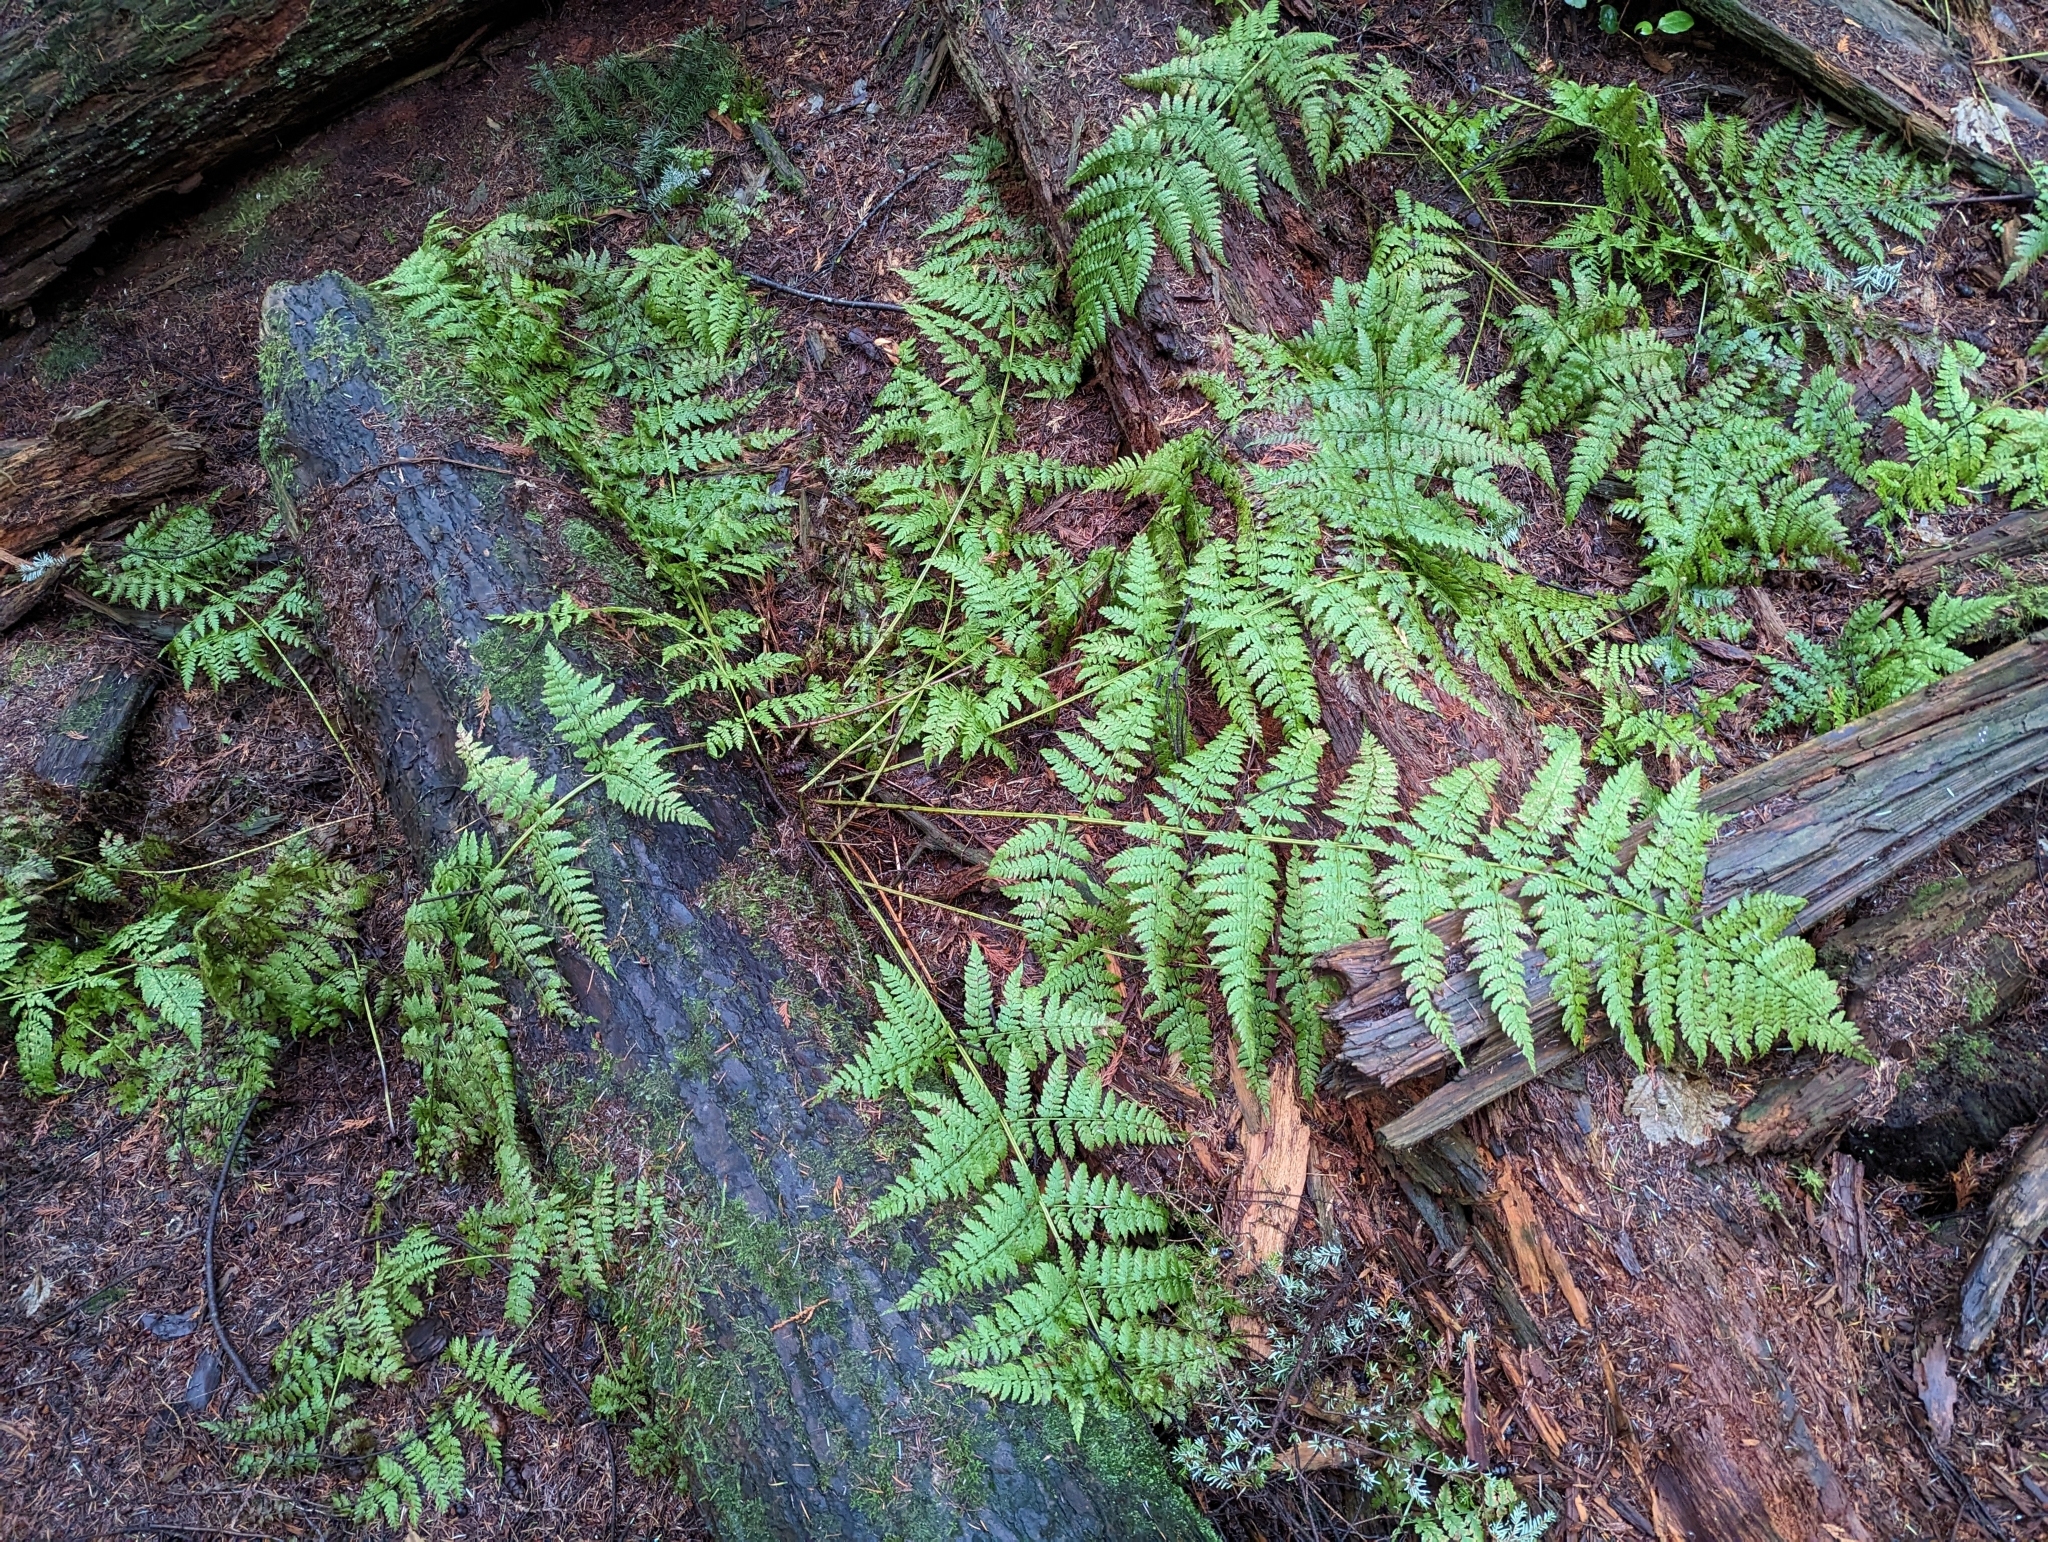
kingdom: Plantae
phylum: Tracheophyta
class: Polypodiopsida
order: Polypodiales
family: Dryopteridaceae
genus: Dryopteris
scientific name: Dryopteris expansa
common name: Northern buckler fern
